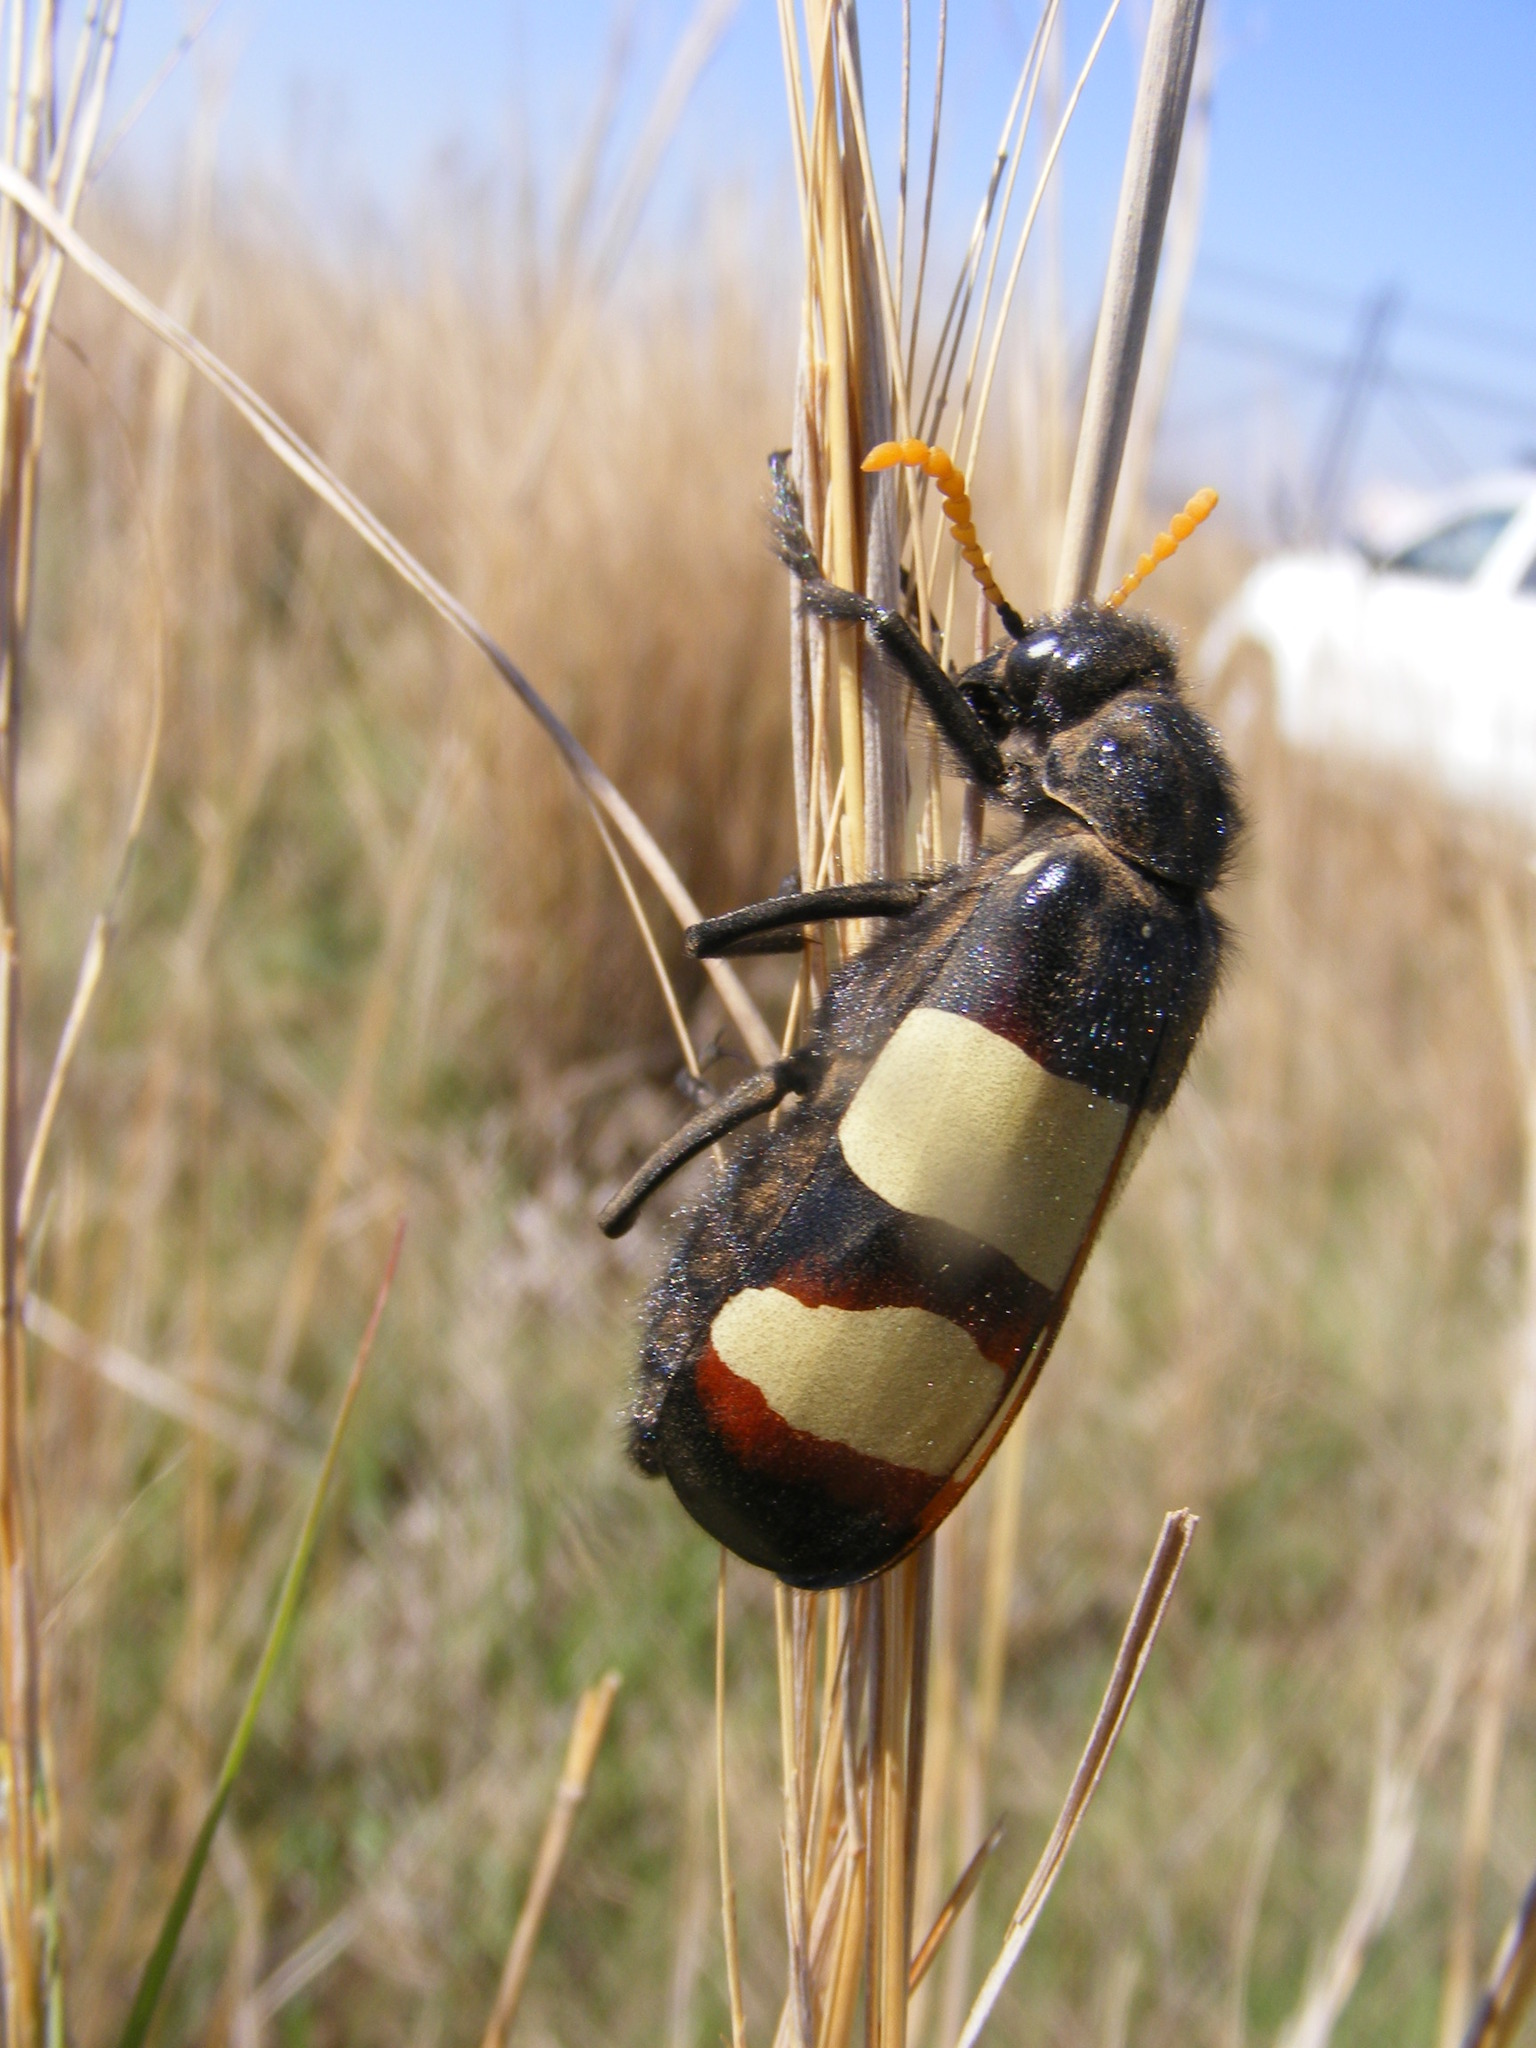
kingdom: Animalia
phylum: Arthropoda
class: Insecta
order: Coleoptera
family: Meloidae
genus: Hycleus
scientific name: Hycleus
